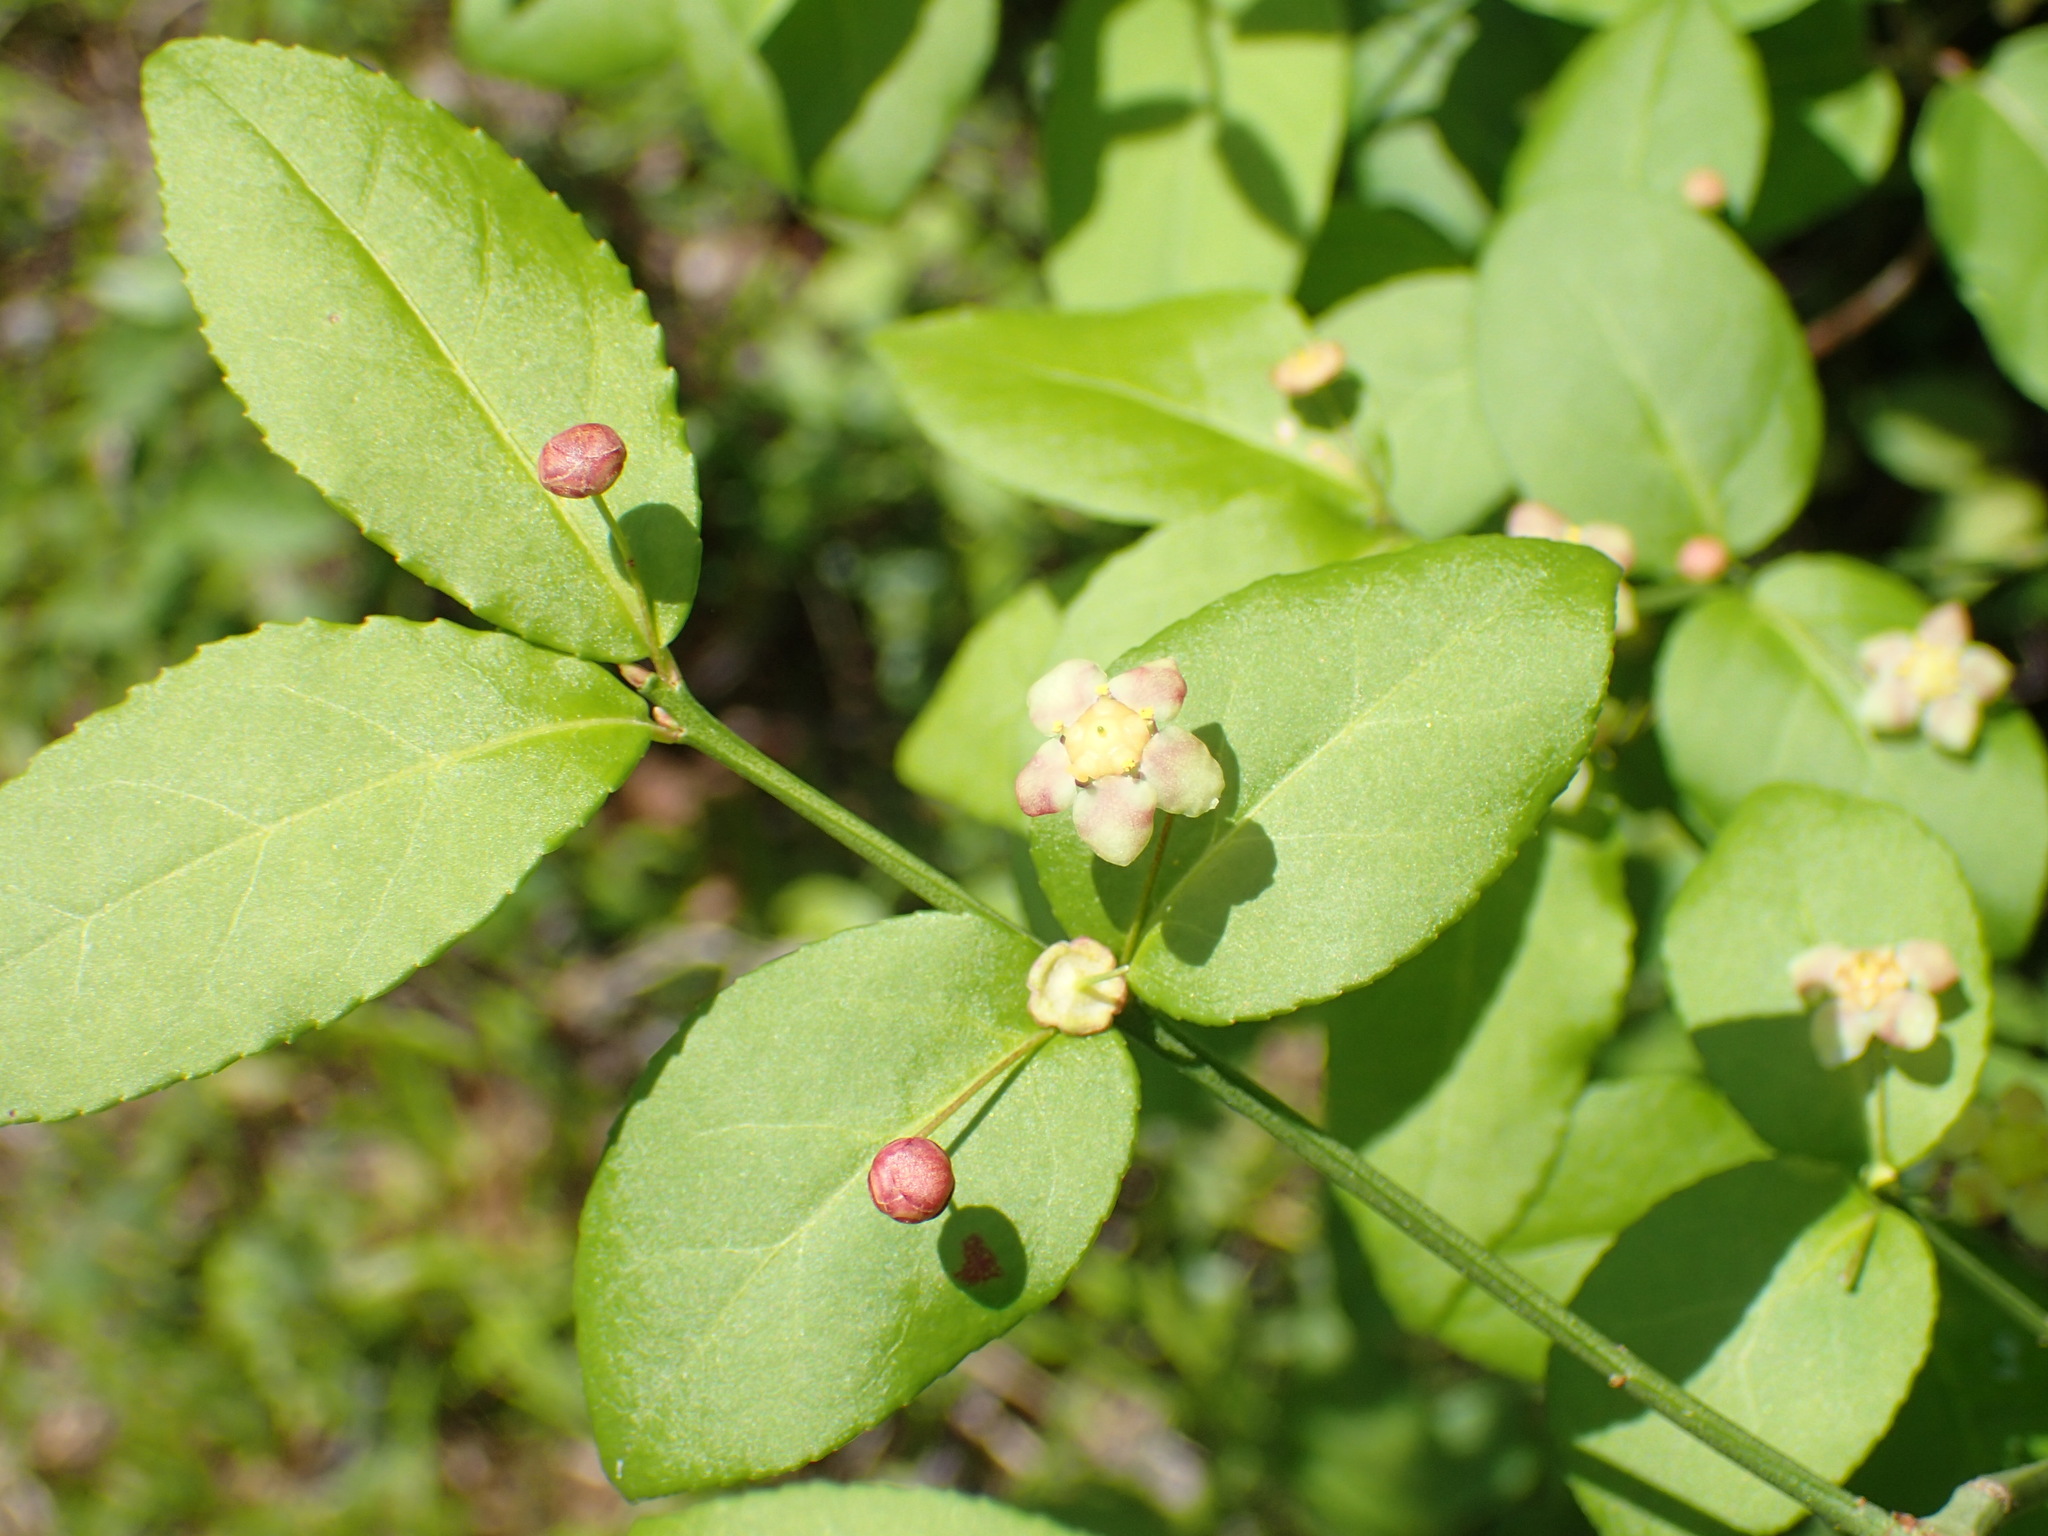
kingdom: Plantae
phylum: Tracheophyta
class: Magnoliopsida
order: Celastrales
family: Celastraceae
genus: Euonymus
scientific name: Euonymus americanus
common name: Bursting-heart
